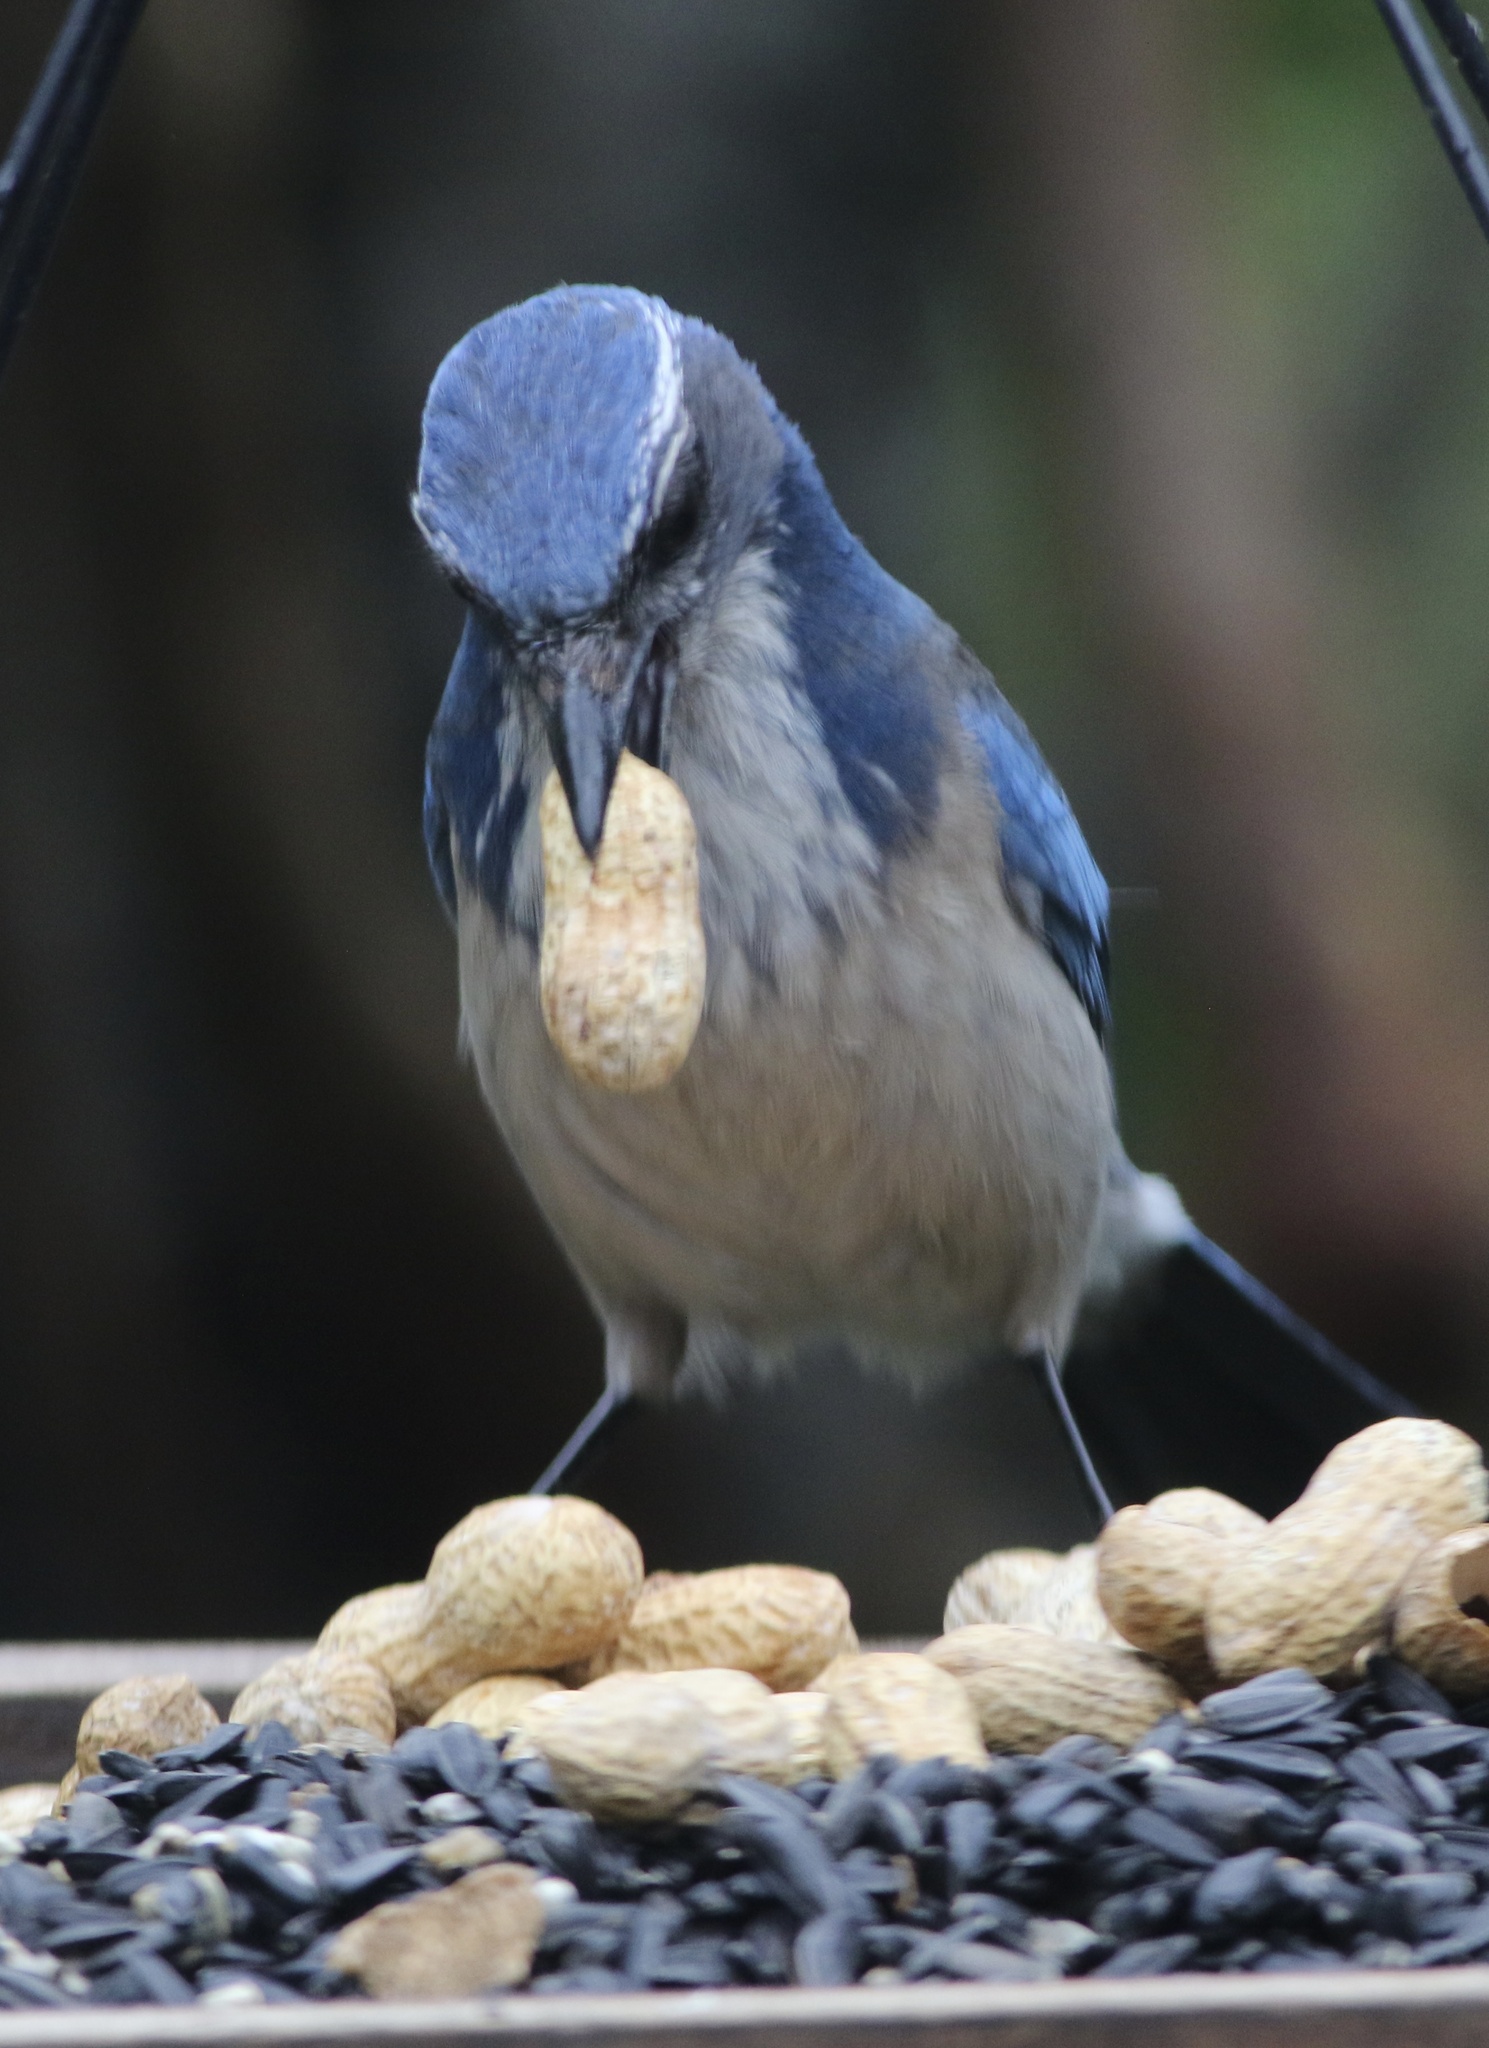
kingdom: Animalia
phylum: Chordata
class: Aves
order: Passeriformes
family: Corvidae
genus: Aphelocoma
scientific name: Aphelocoma californica
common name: California scrub-jay
